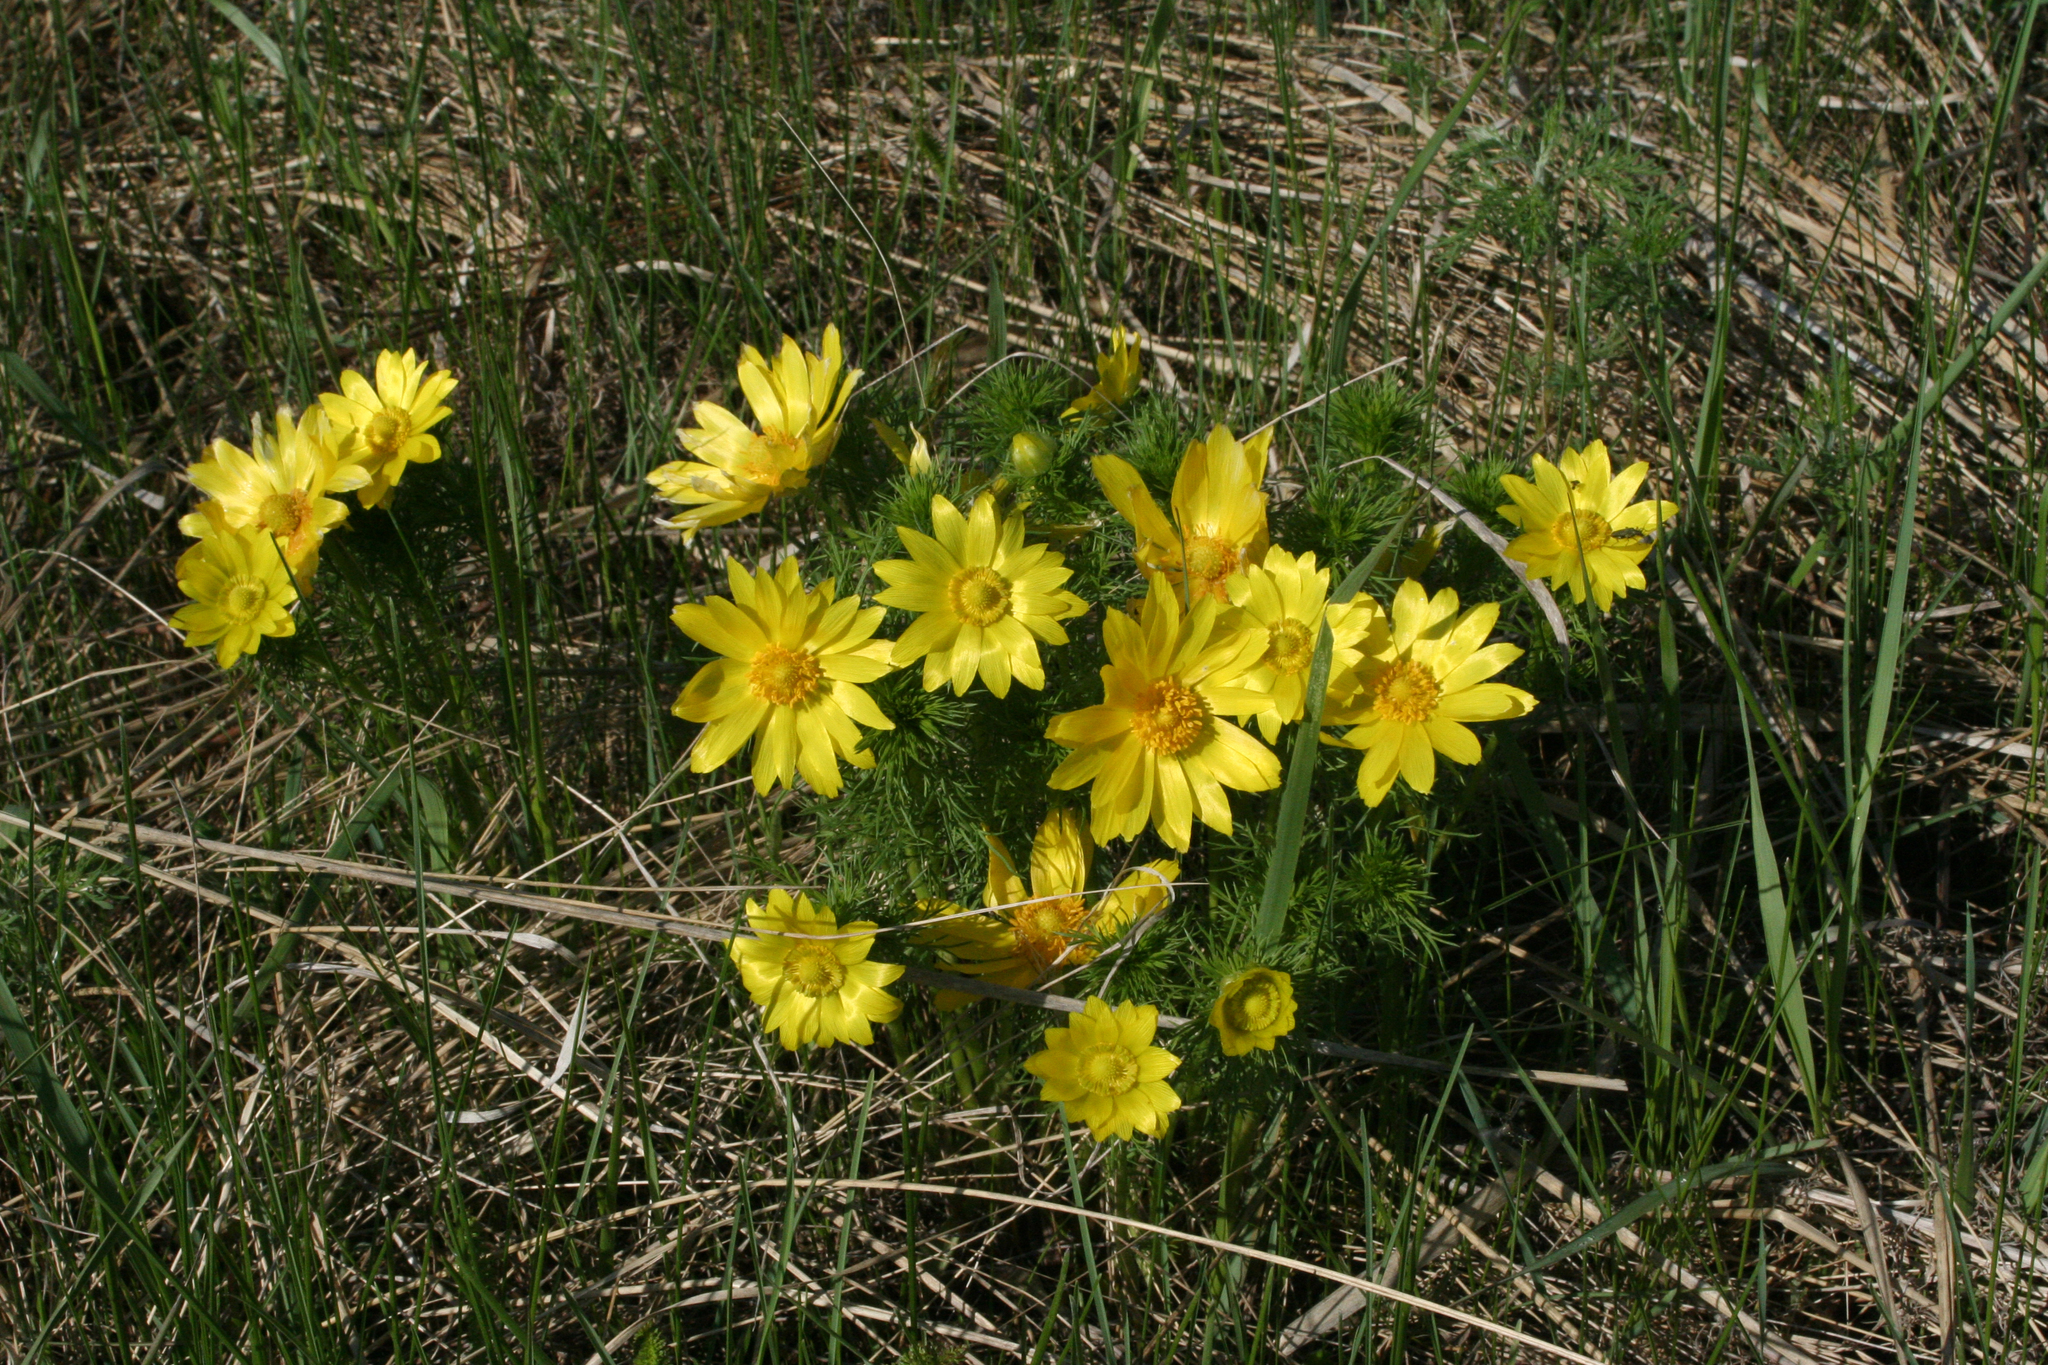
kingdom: Plantae
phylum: Tracheophyta
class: Magnoliopsida
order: Ranunculales
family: Ranunculaceae
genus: Adonis
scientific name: Adonis vernalis
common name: Yellow pheasants-eye
